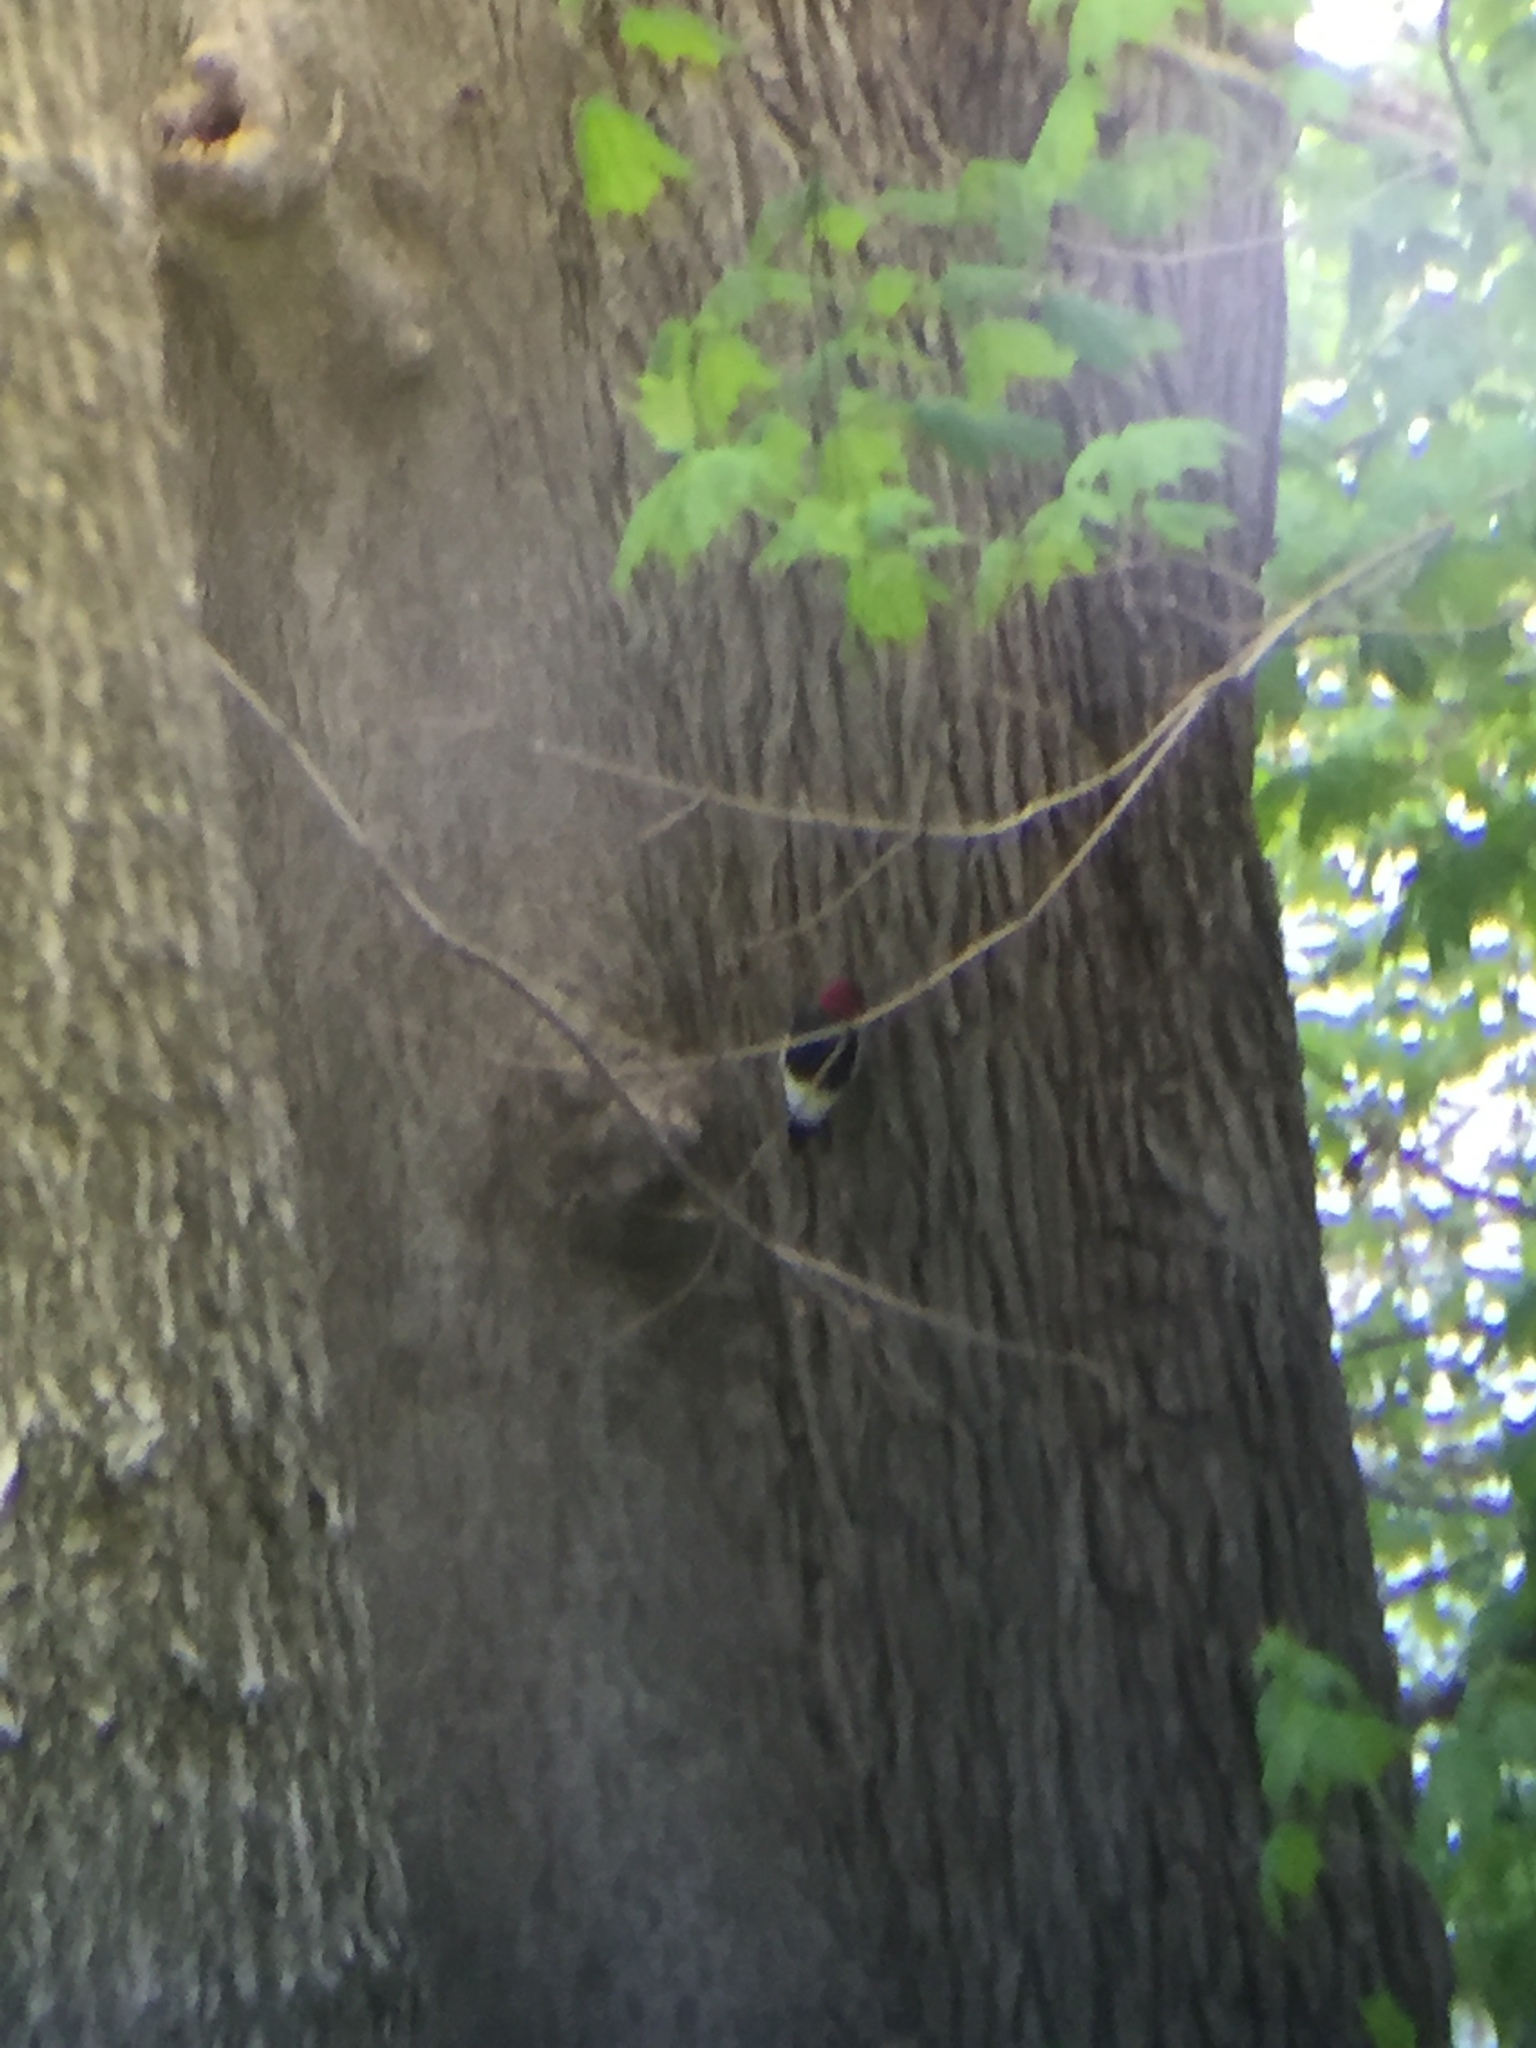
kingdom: Animalia
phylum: Chordata
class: Aves
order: Piciformes
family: Picidae
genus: Melanerpes
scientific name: Melanerpes erythrocephalus
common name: Red-headed woodpecker
